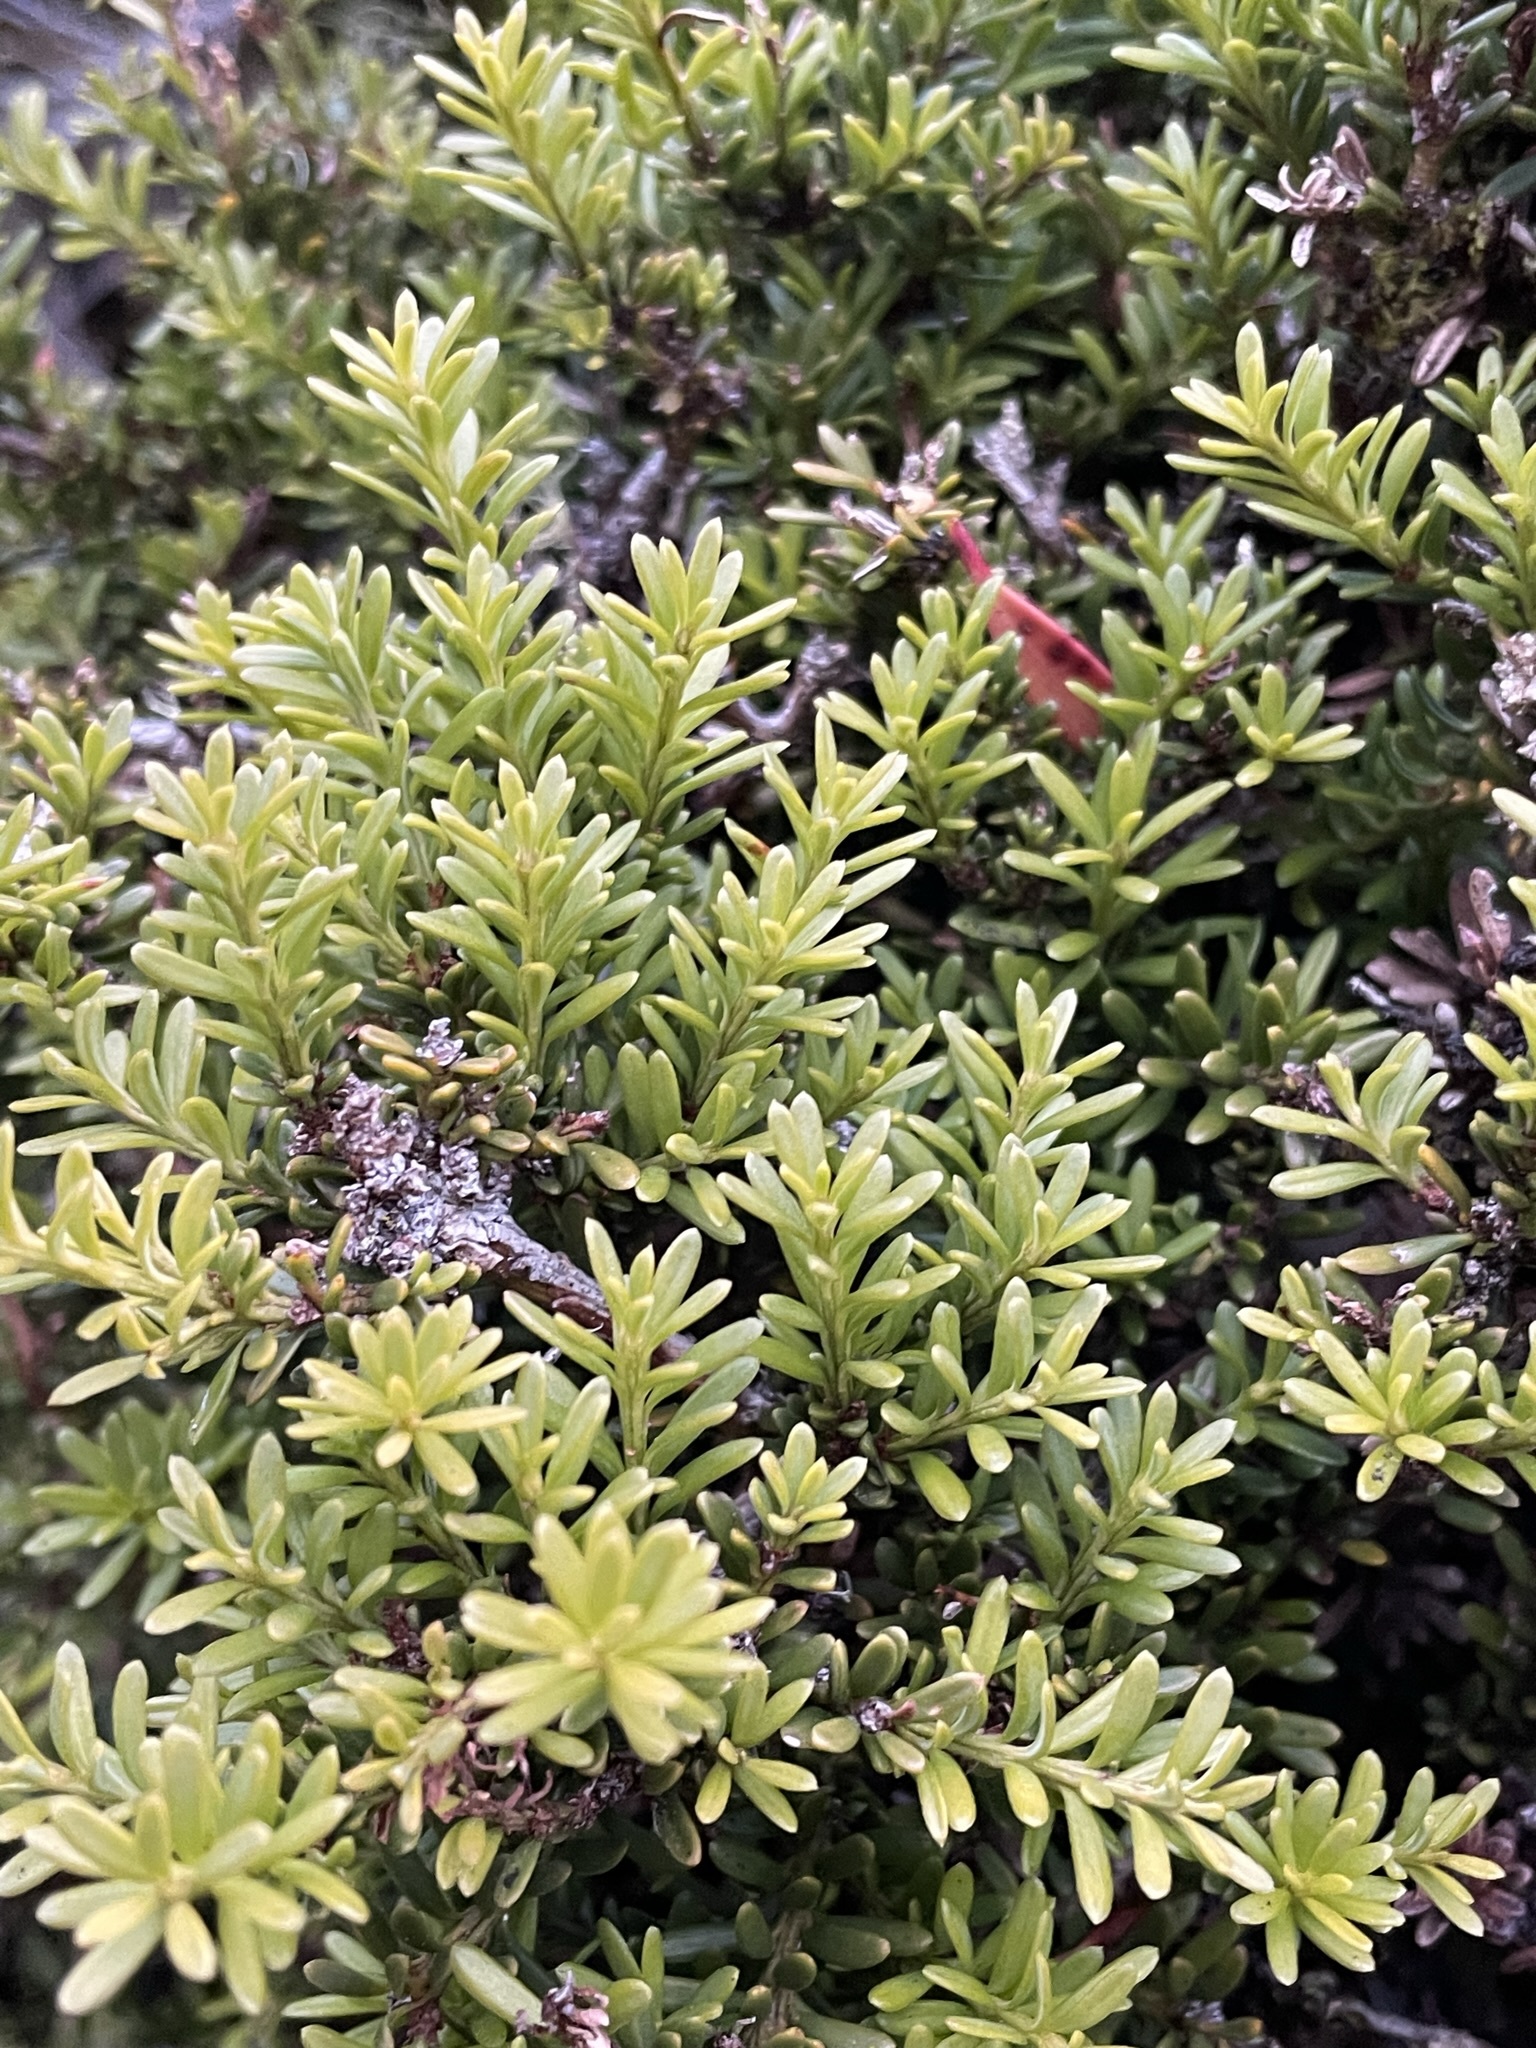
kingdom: Plantae
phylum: Tracheophyta
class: Pinopsida
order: Pinales
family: Podocarpaceae
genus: Podocarpus
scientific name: Podocarpus lawrencei
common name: Mountain plum pine
